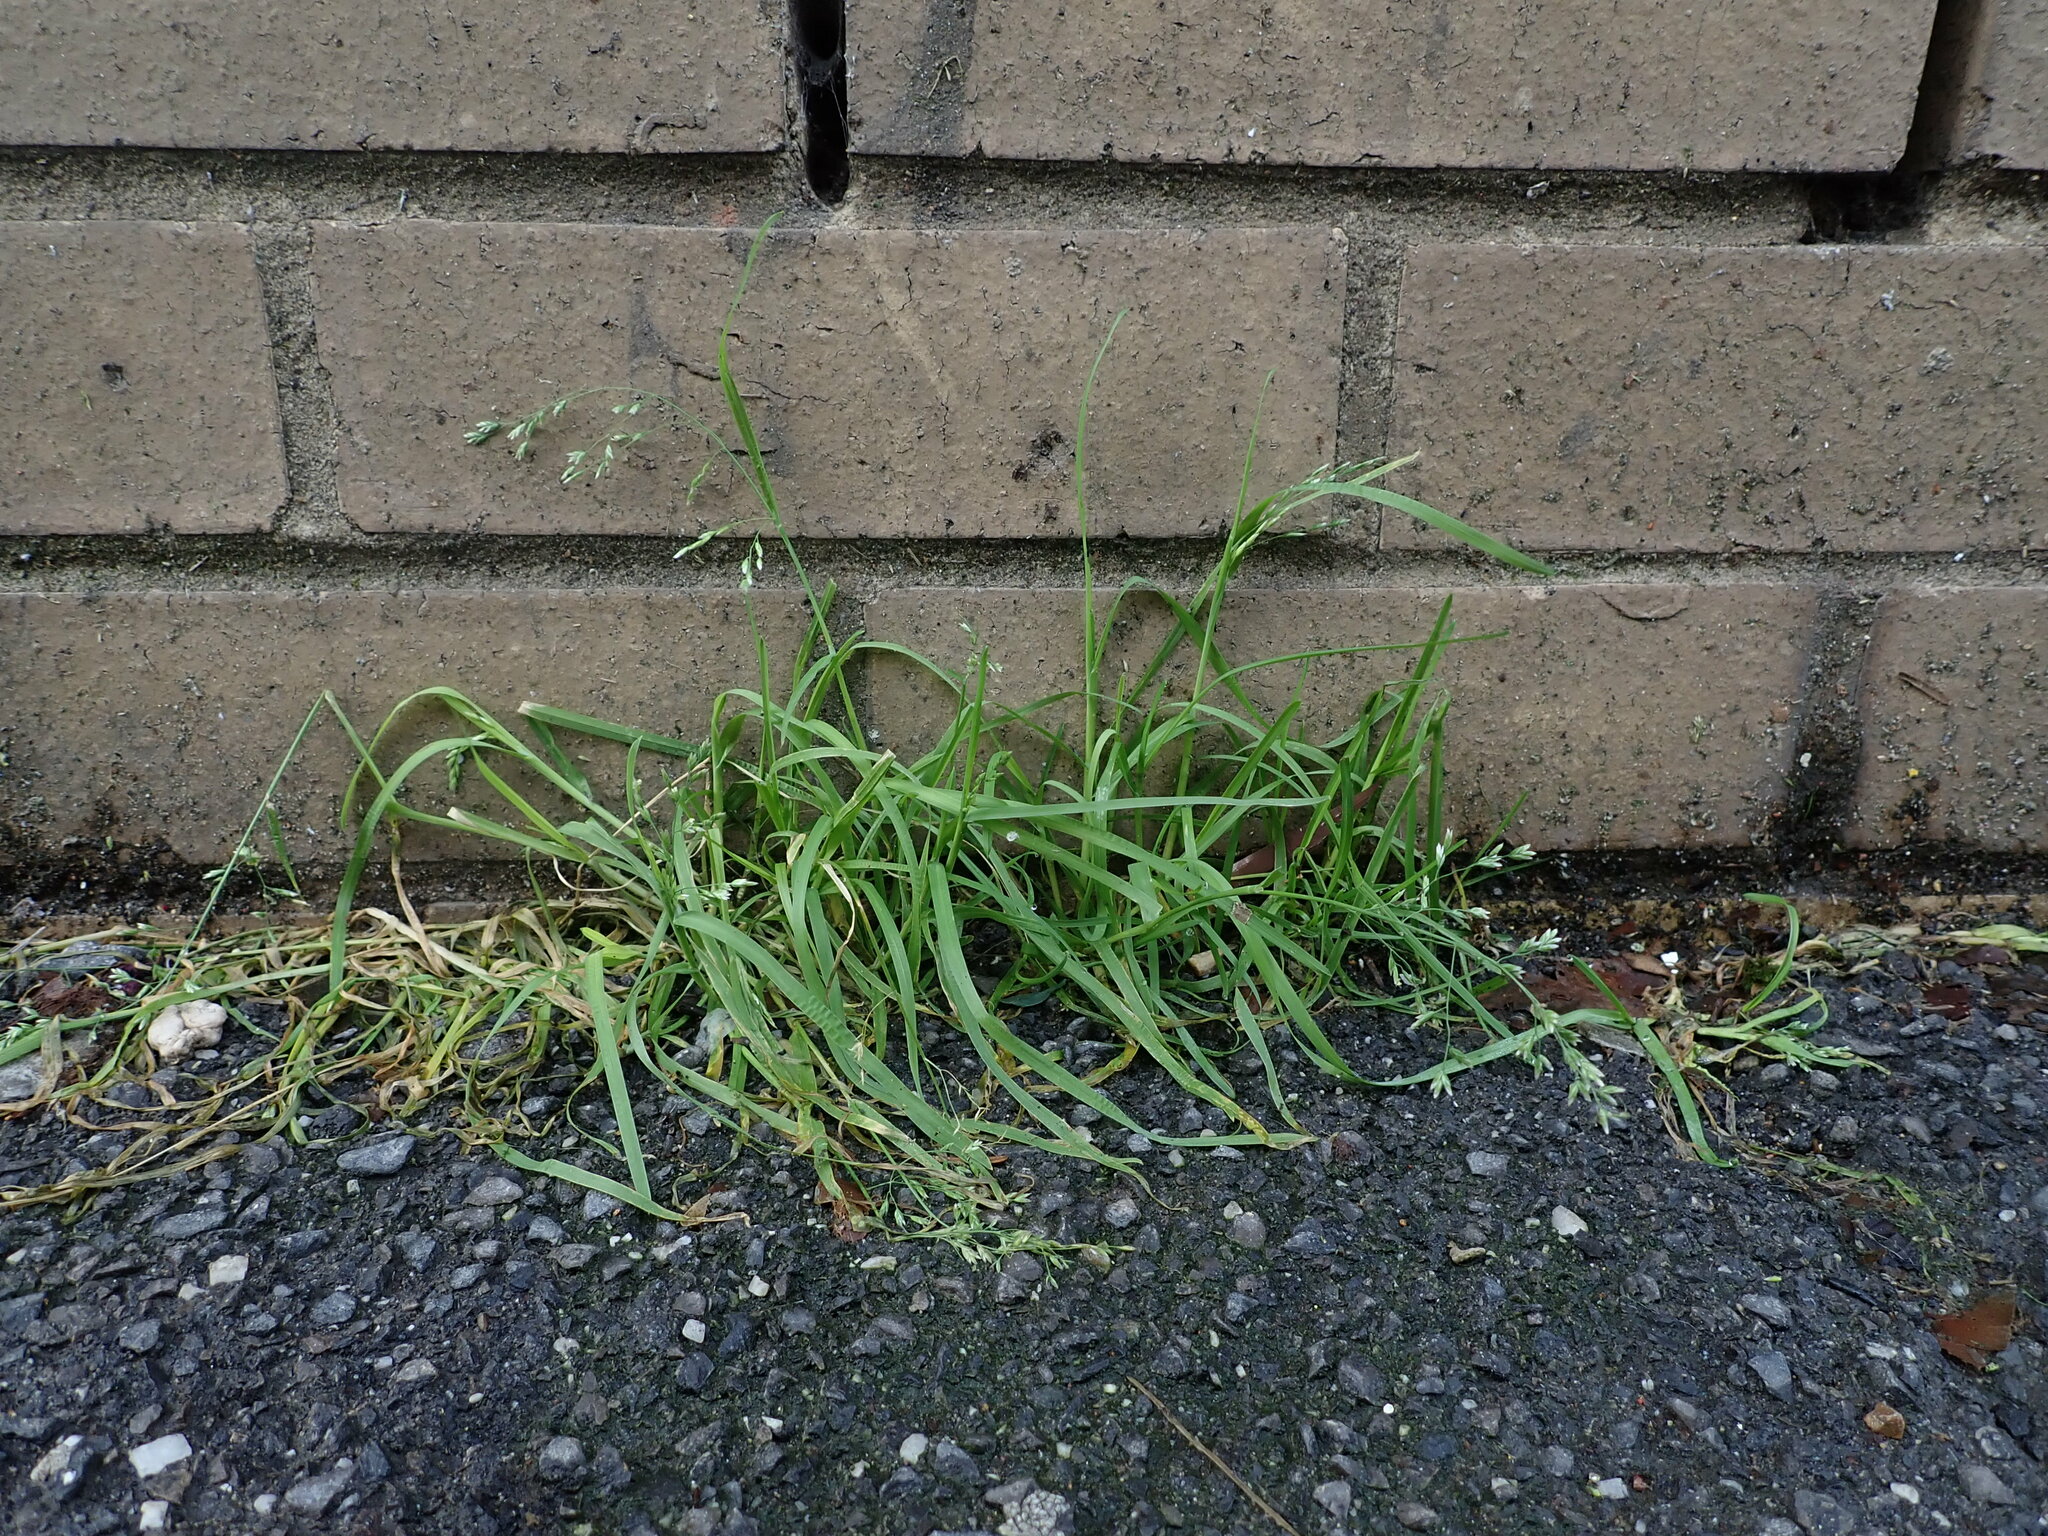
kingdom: Plantae
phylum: Tracheophyta
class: Liliopsida
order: Poales
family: Poaceae
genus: Poa
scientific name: Poa annua
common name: Annual bluegrass
